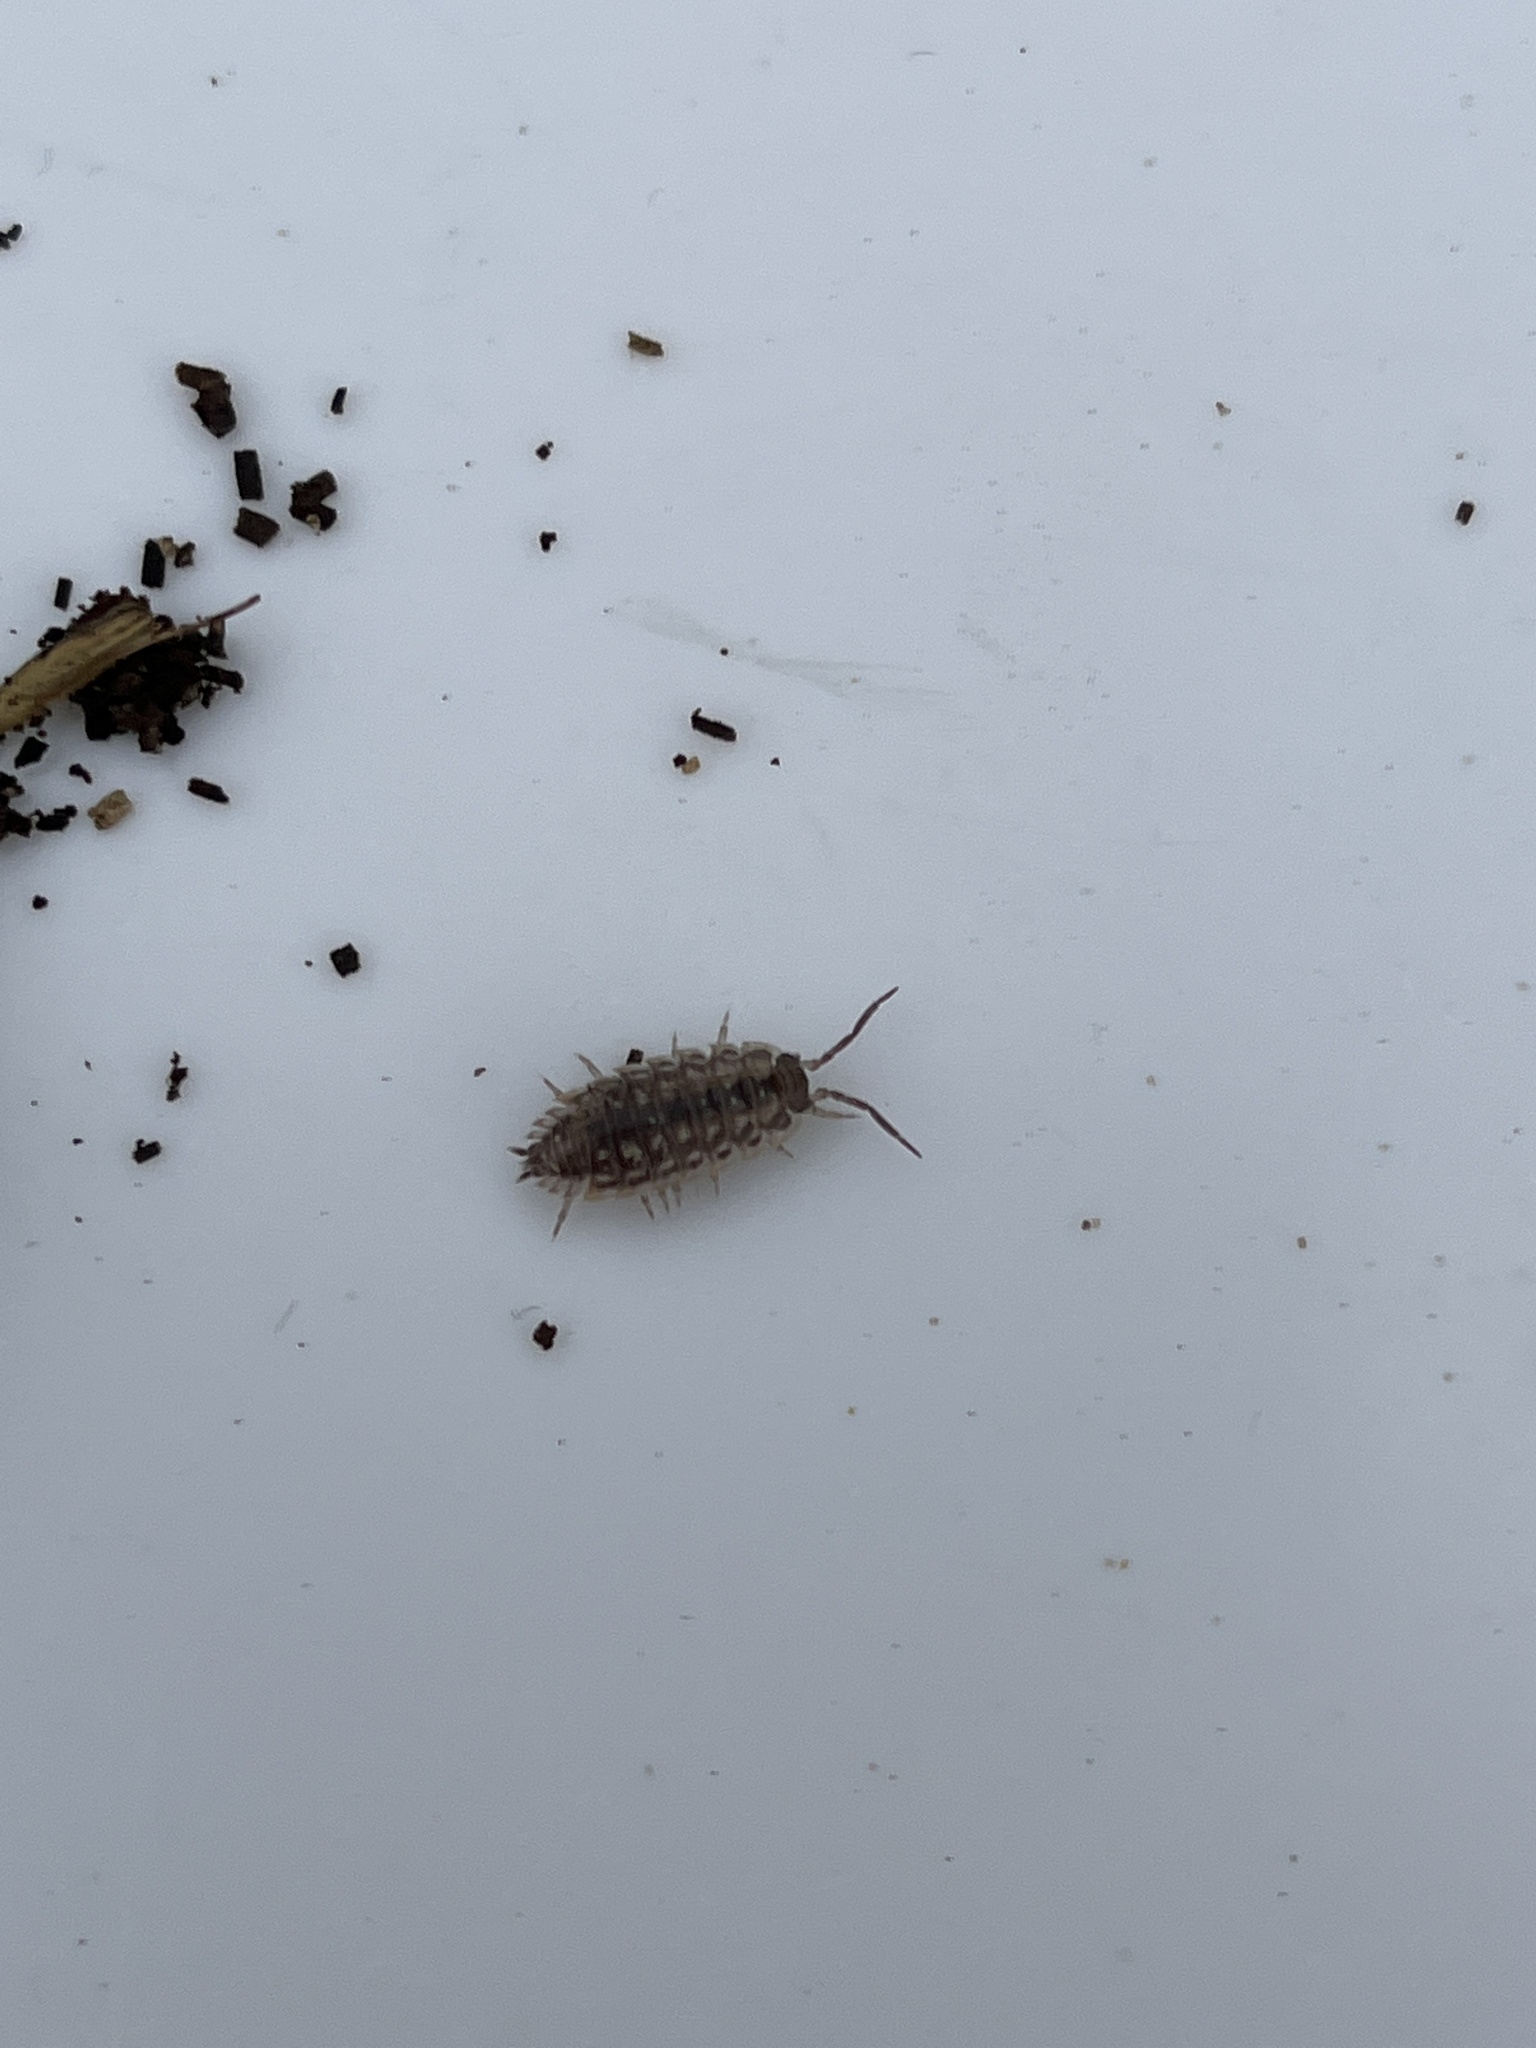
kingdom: Animalia
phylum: Arthropoda
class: Malacostraca
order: Isopoda
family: Oniscidae
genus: Oniscus
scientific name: Oniscus asellus
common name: Common shiny woodlouse
